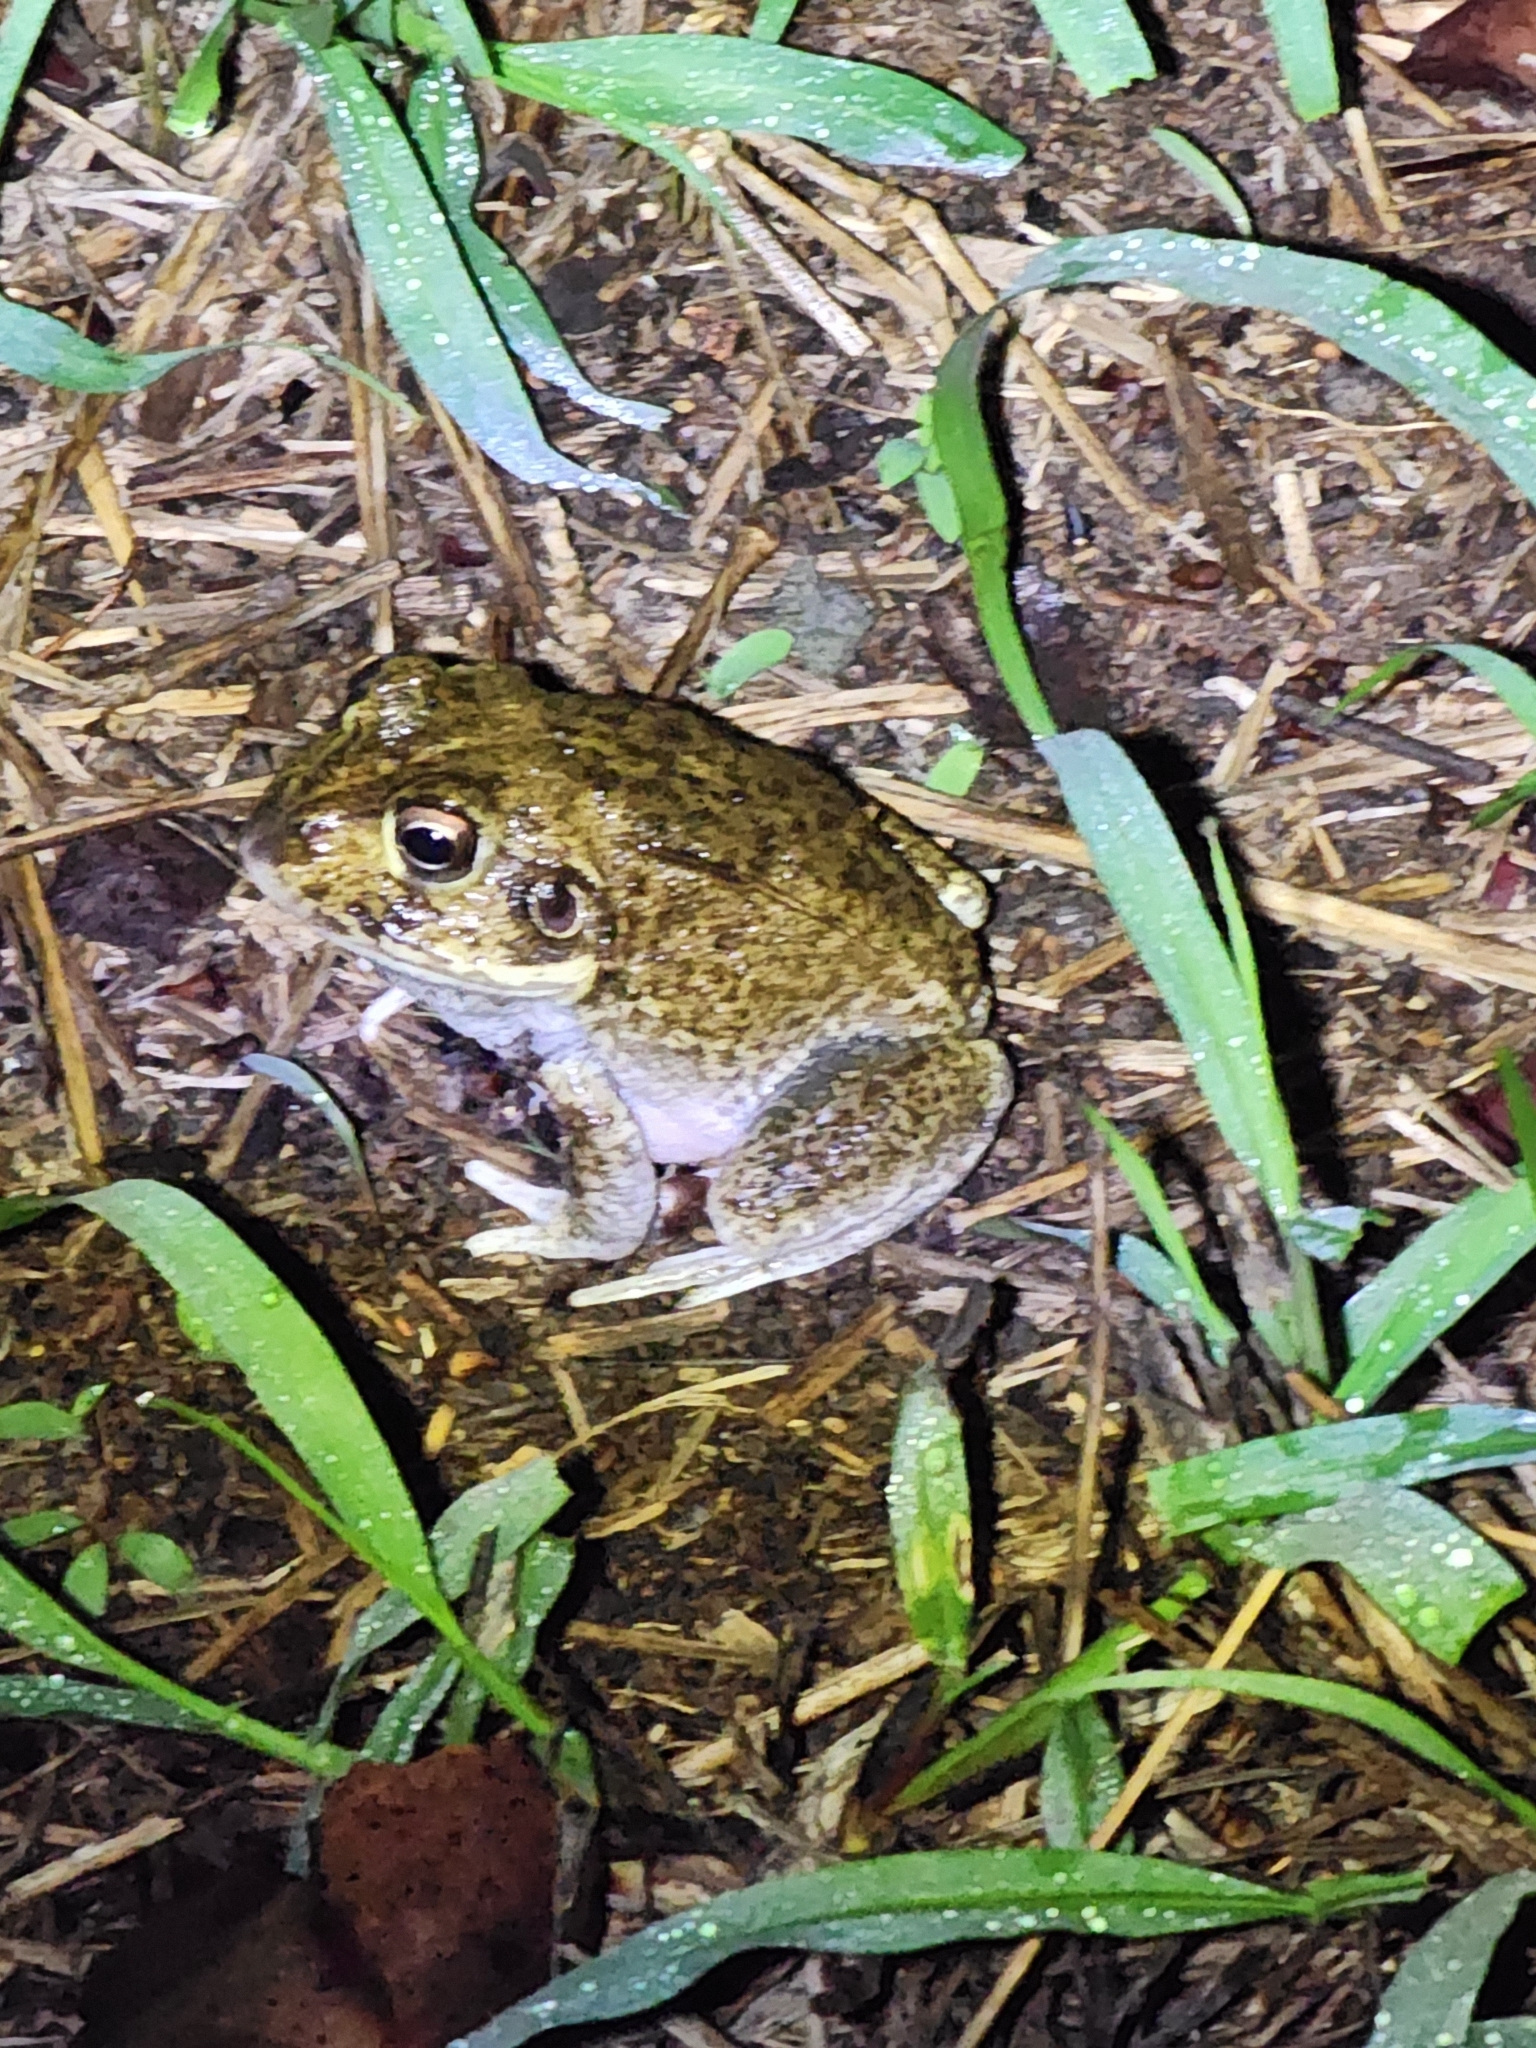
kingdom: Animalia
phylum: Chordata
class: Amphibia
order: Anura
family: Pelodryadidae
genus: Ranoidea
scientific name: Ranoidea novaehollandiae
